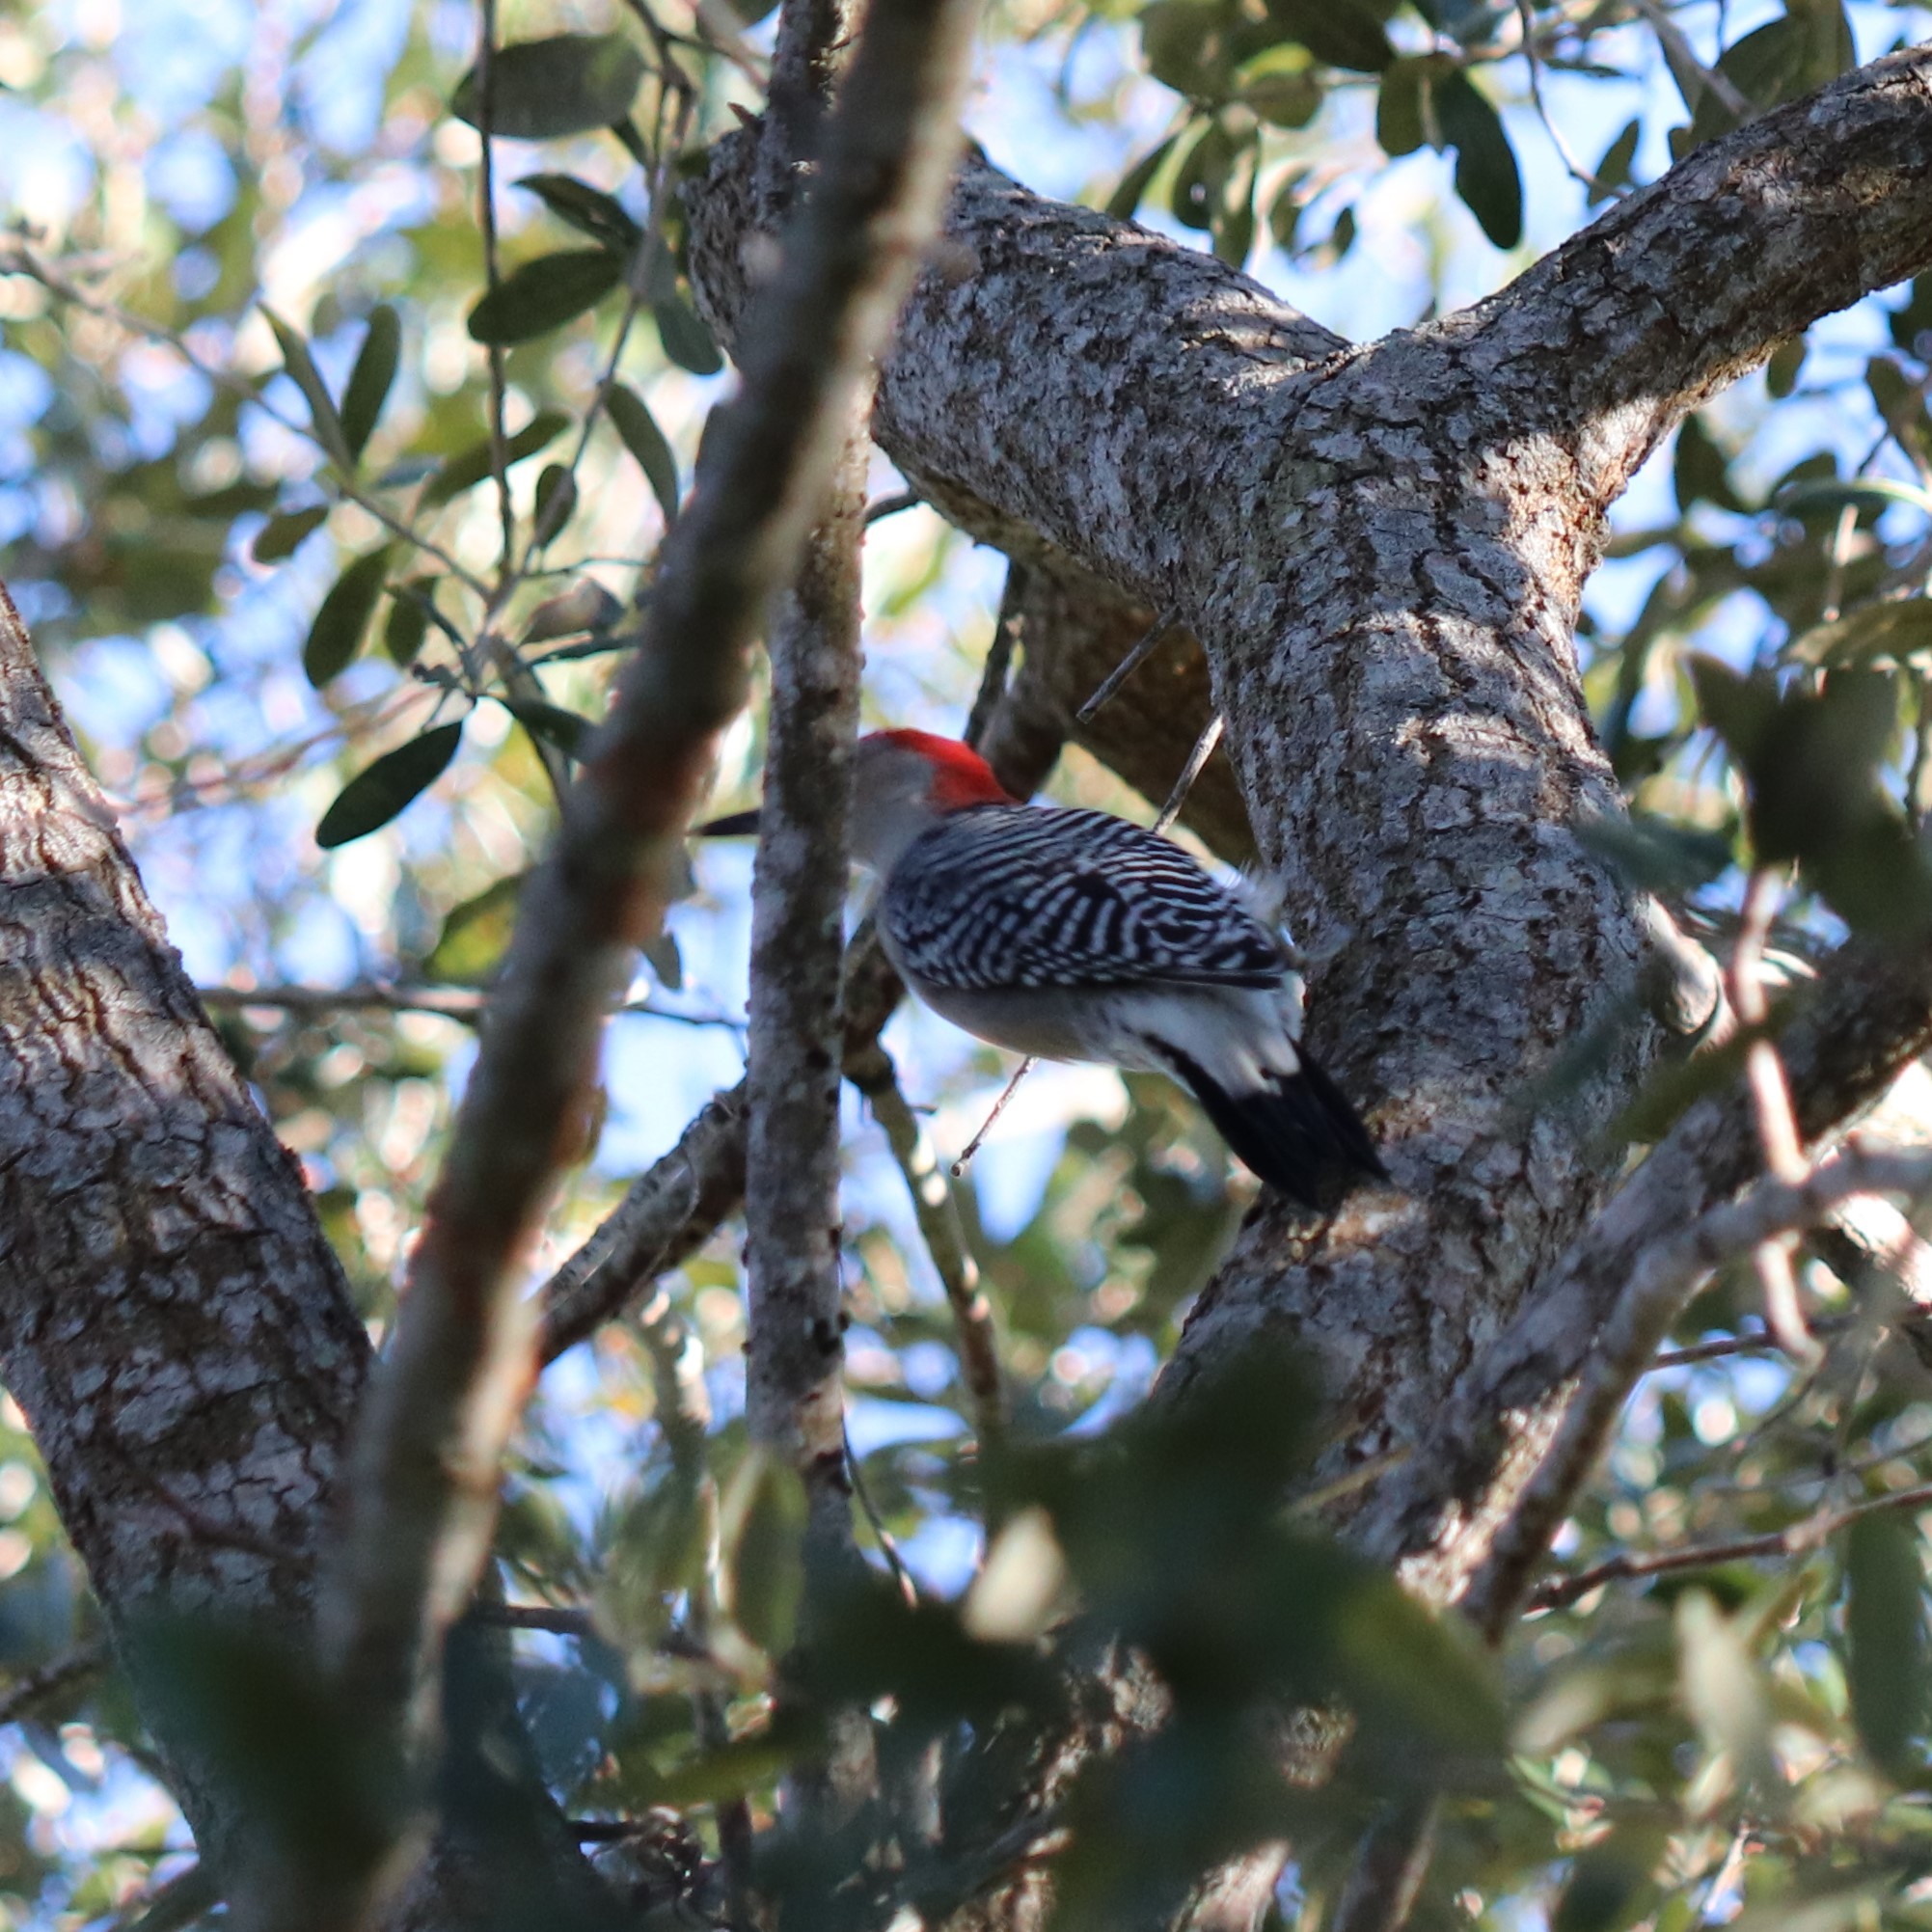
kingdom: Animalia
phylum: Chordata
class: Aves
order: Piciformes
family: Picidae
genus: Melanerpes
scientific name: Melanerpes carolinus
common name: Red-bellied woodpecker
